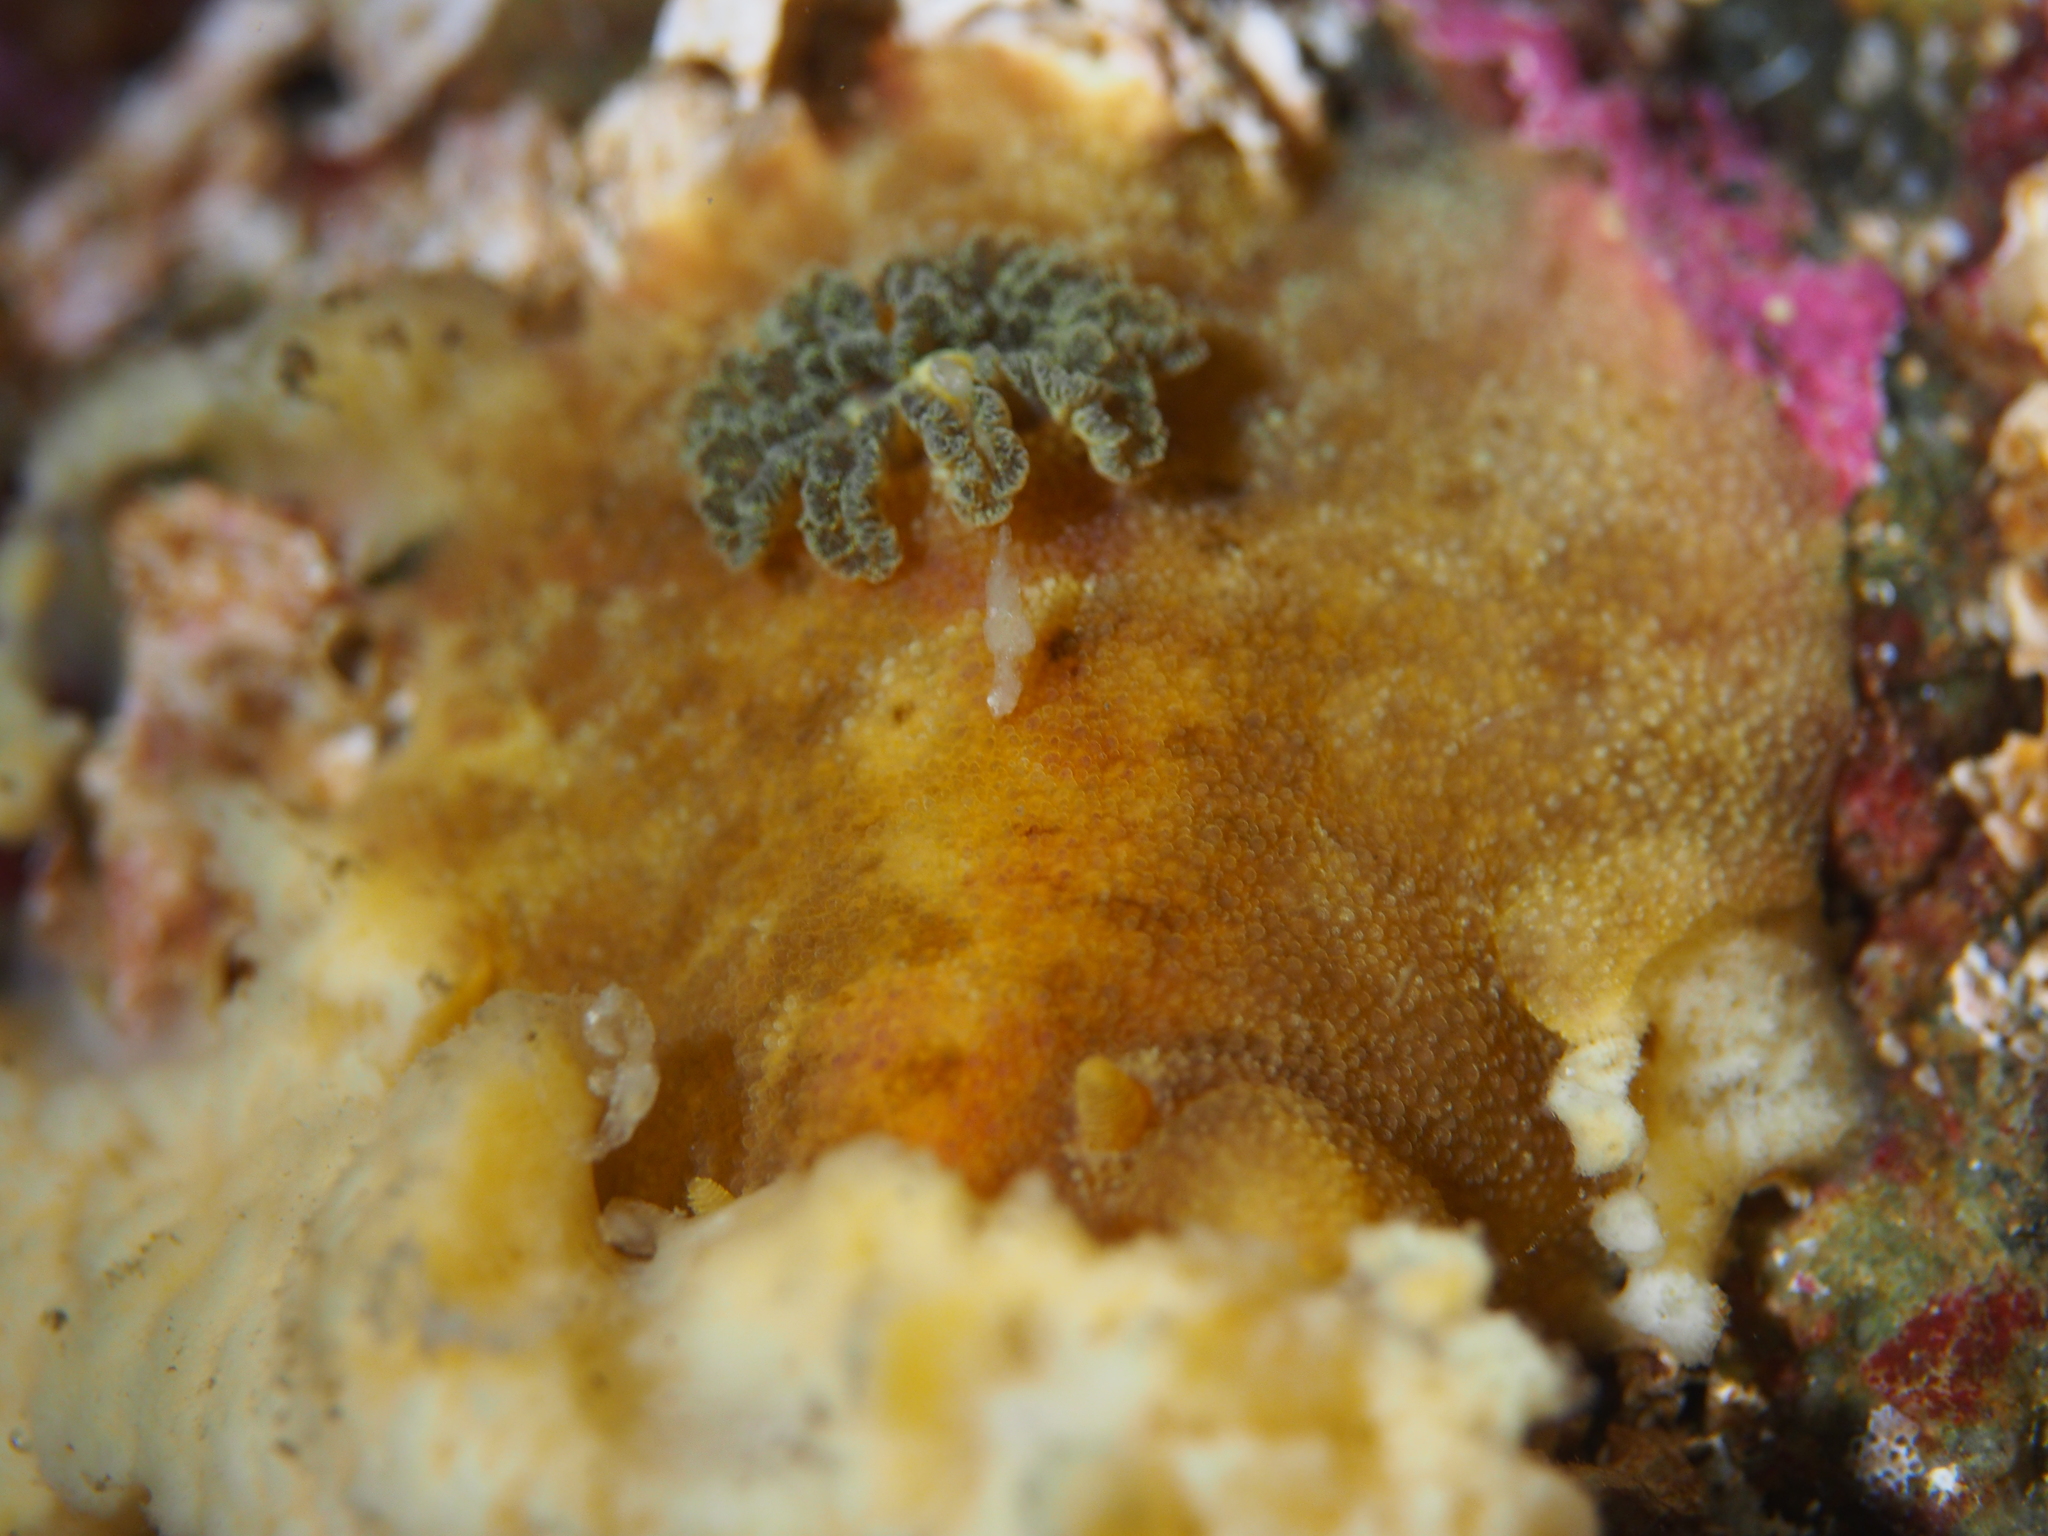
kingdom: Animalia
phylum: Mollusca
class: Gastropoda
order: Nudibranchia
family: Dorididae
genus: Doris
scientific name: Doris pseudoargus
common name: Sea lemon
